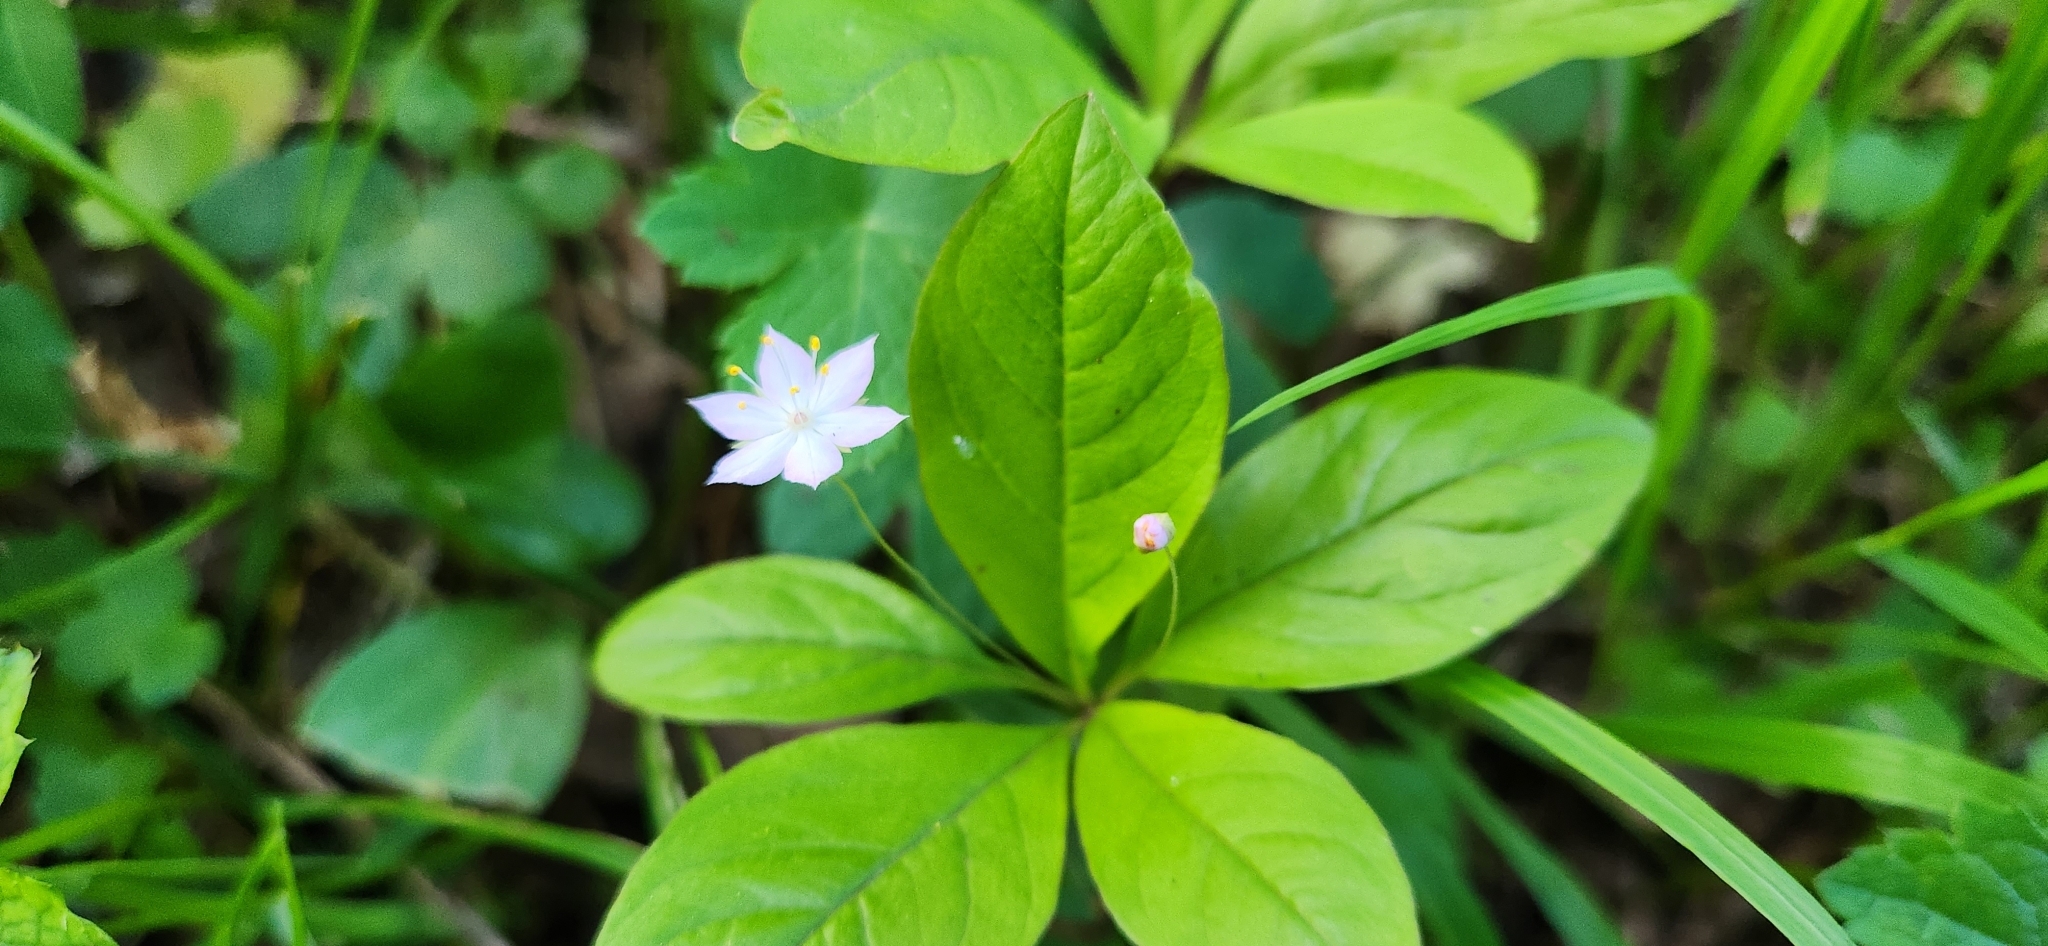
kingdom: Plantae
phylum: Tracheophyta
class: Magnoliopsida
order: Ericales
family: Primulaceae
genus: Lysimachia
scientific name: Lysimachia latifolia
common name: Pacific starflower
